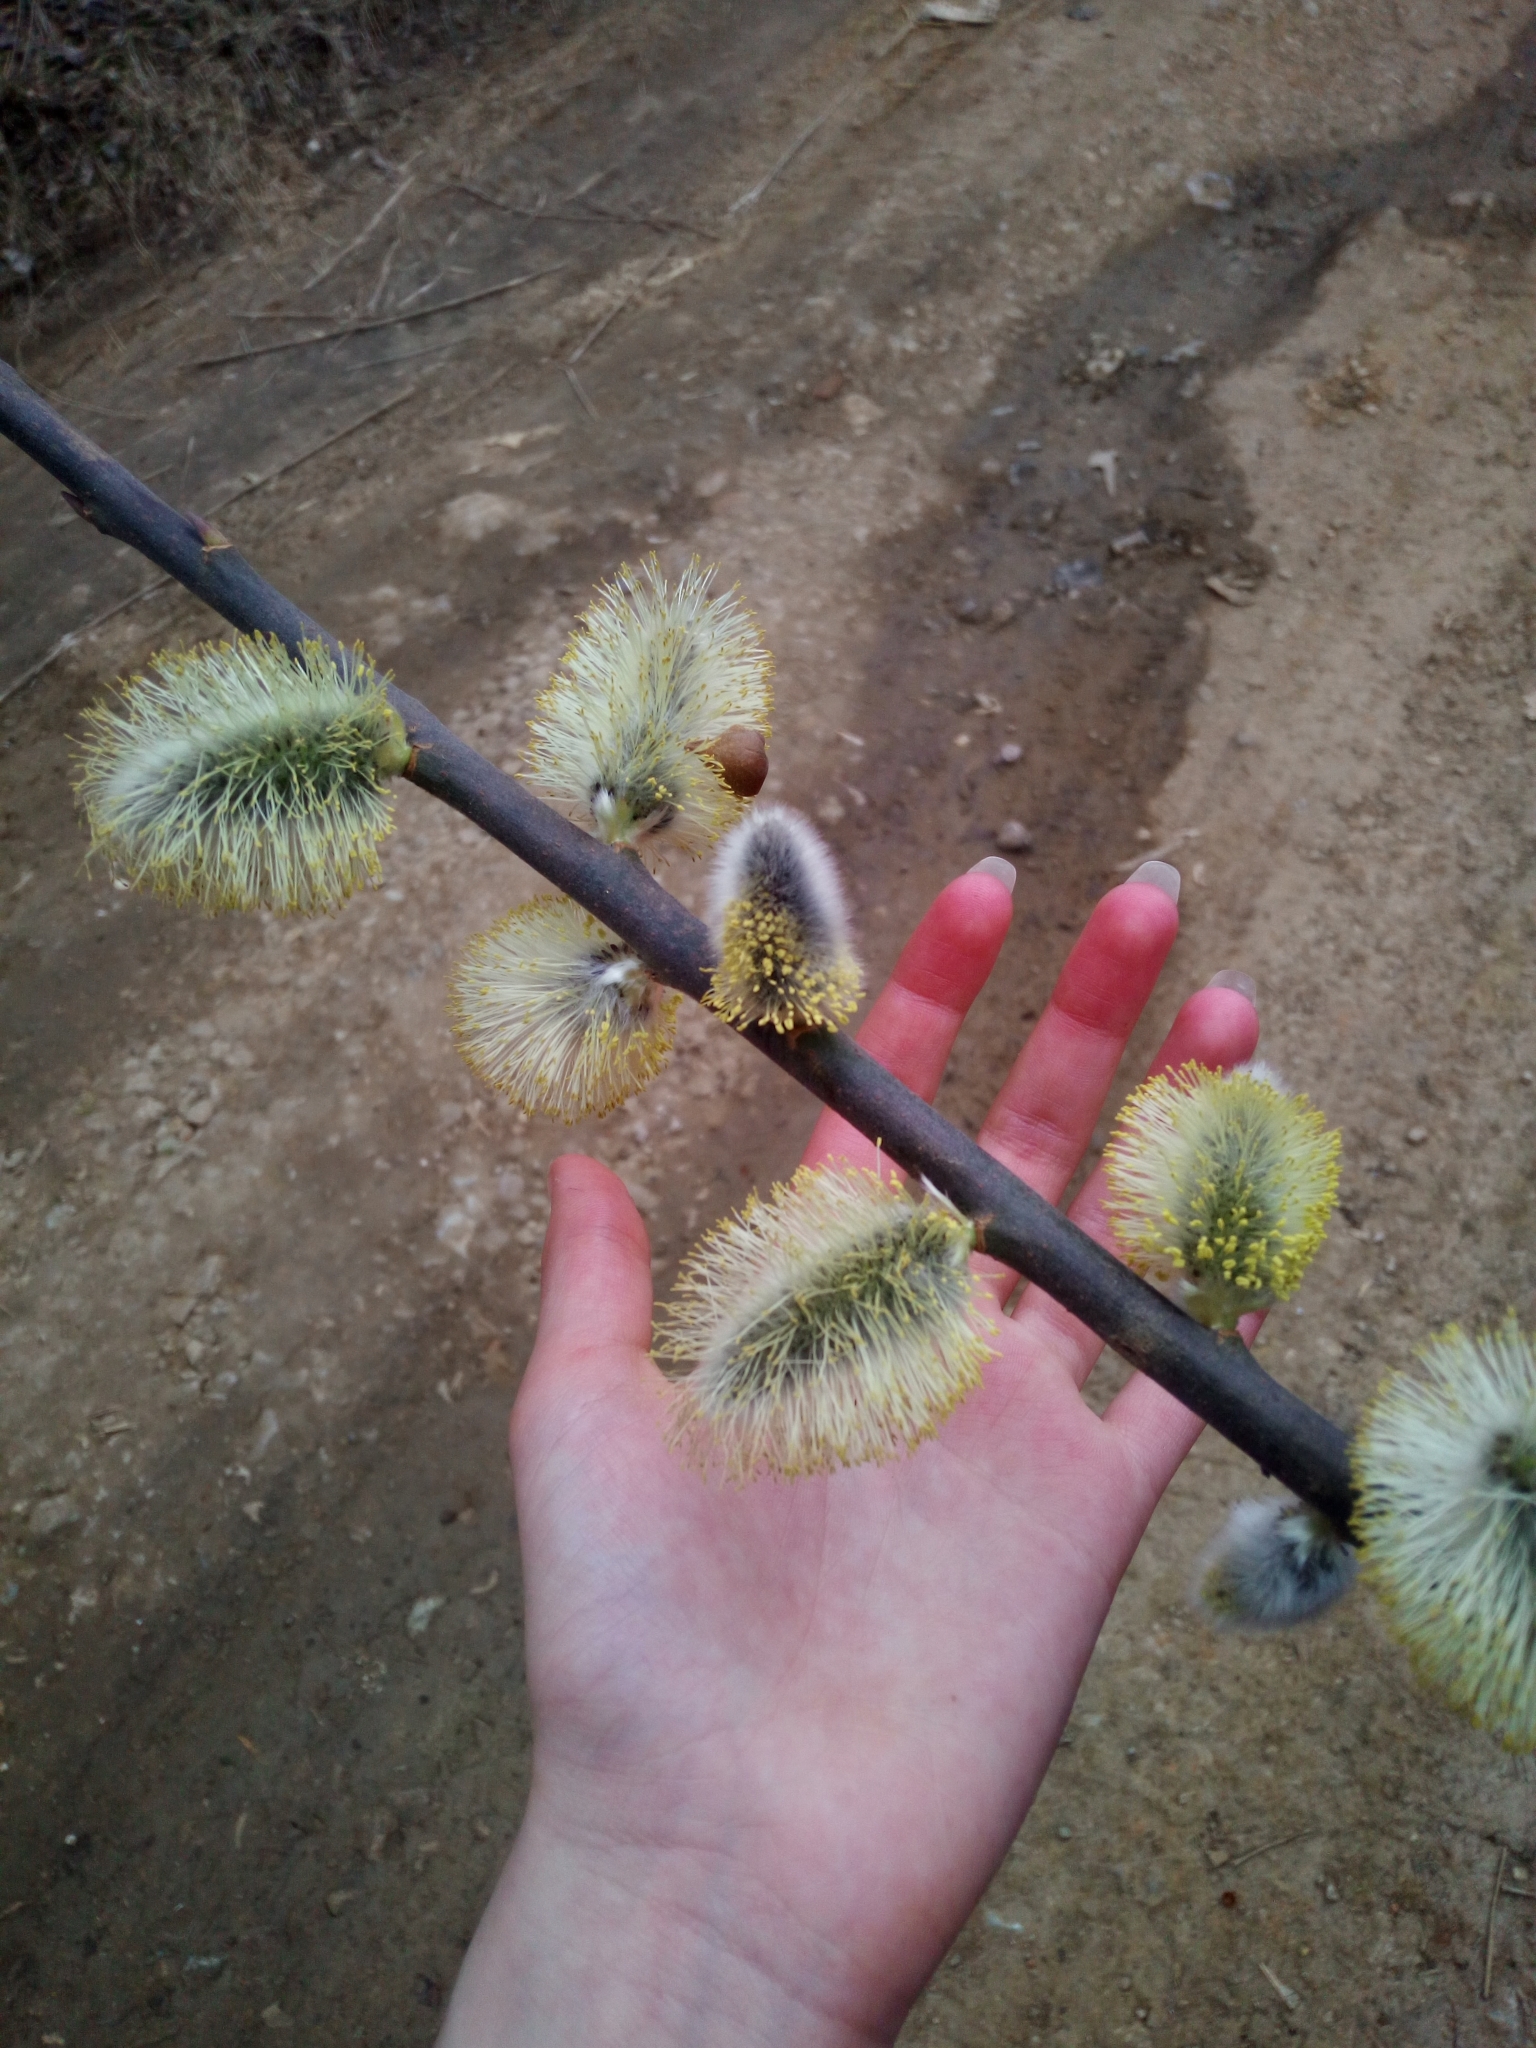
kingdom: Plantae
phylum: Tracheophyta
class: Magnoliopsida
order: Malpighiales
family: Salicaceae
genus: Salix
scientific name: Salix caprea
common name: Goat willow
